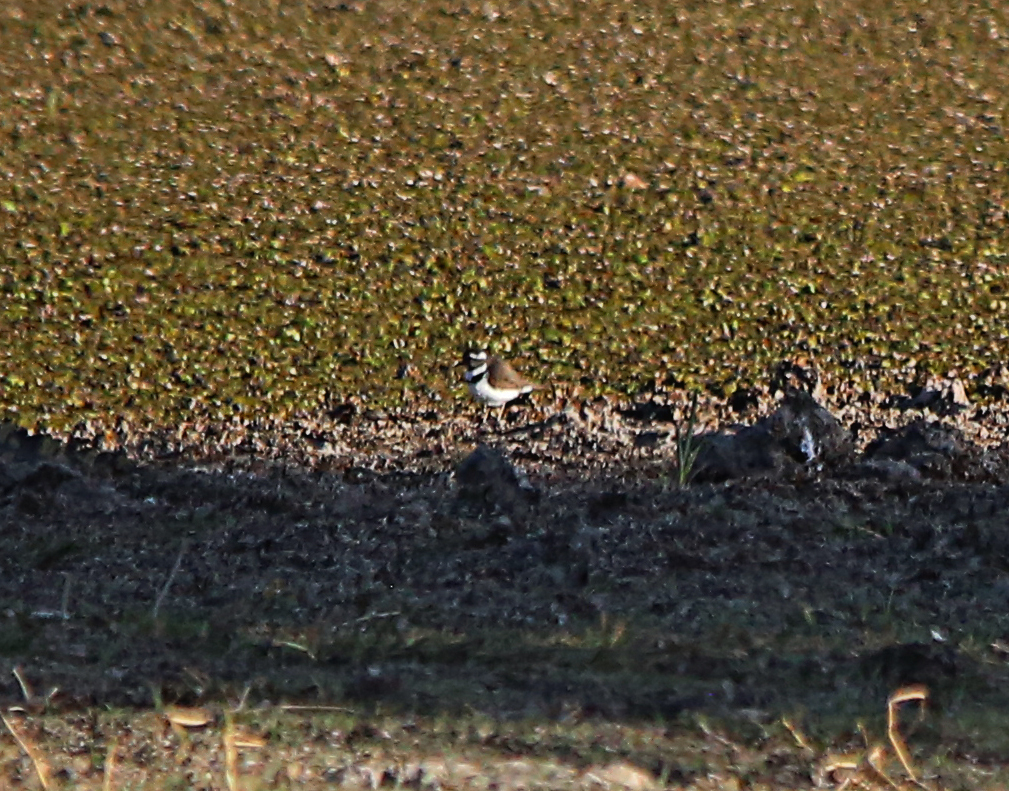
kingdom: Animalia
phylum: Chordata
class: Aves
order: Charadriiformes
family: Charadriidae
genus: Charadrius
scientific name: Charadrius tricollaris
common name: Three-banded plover
